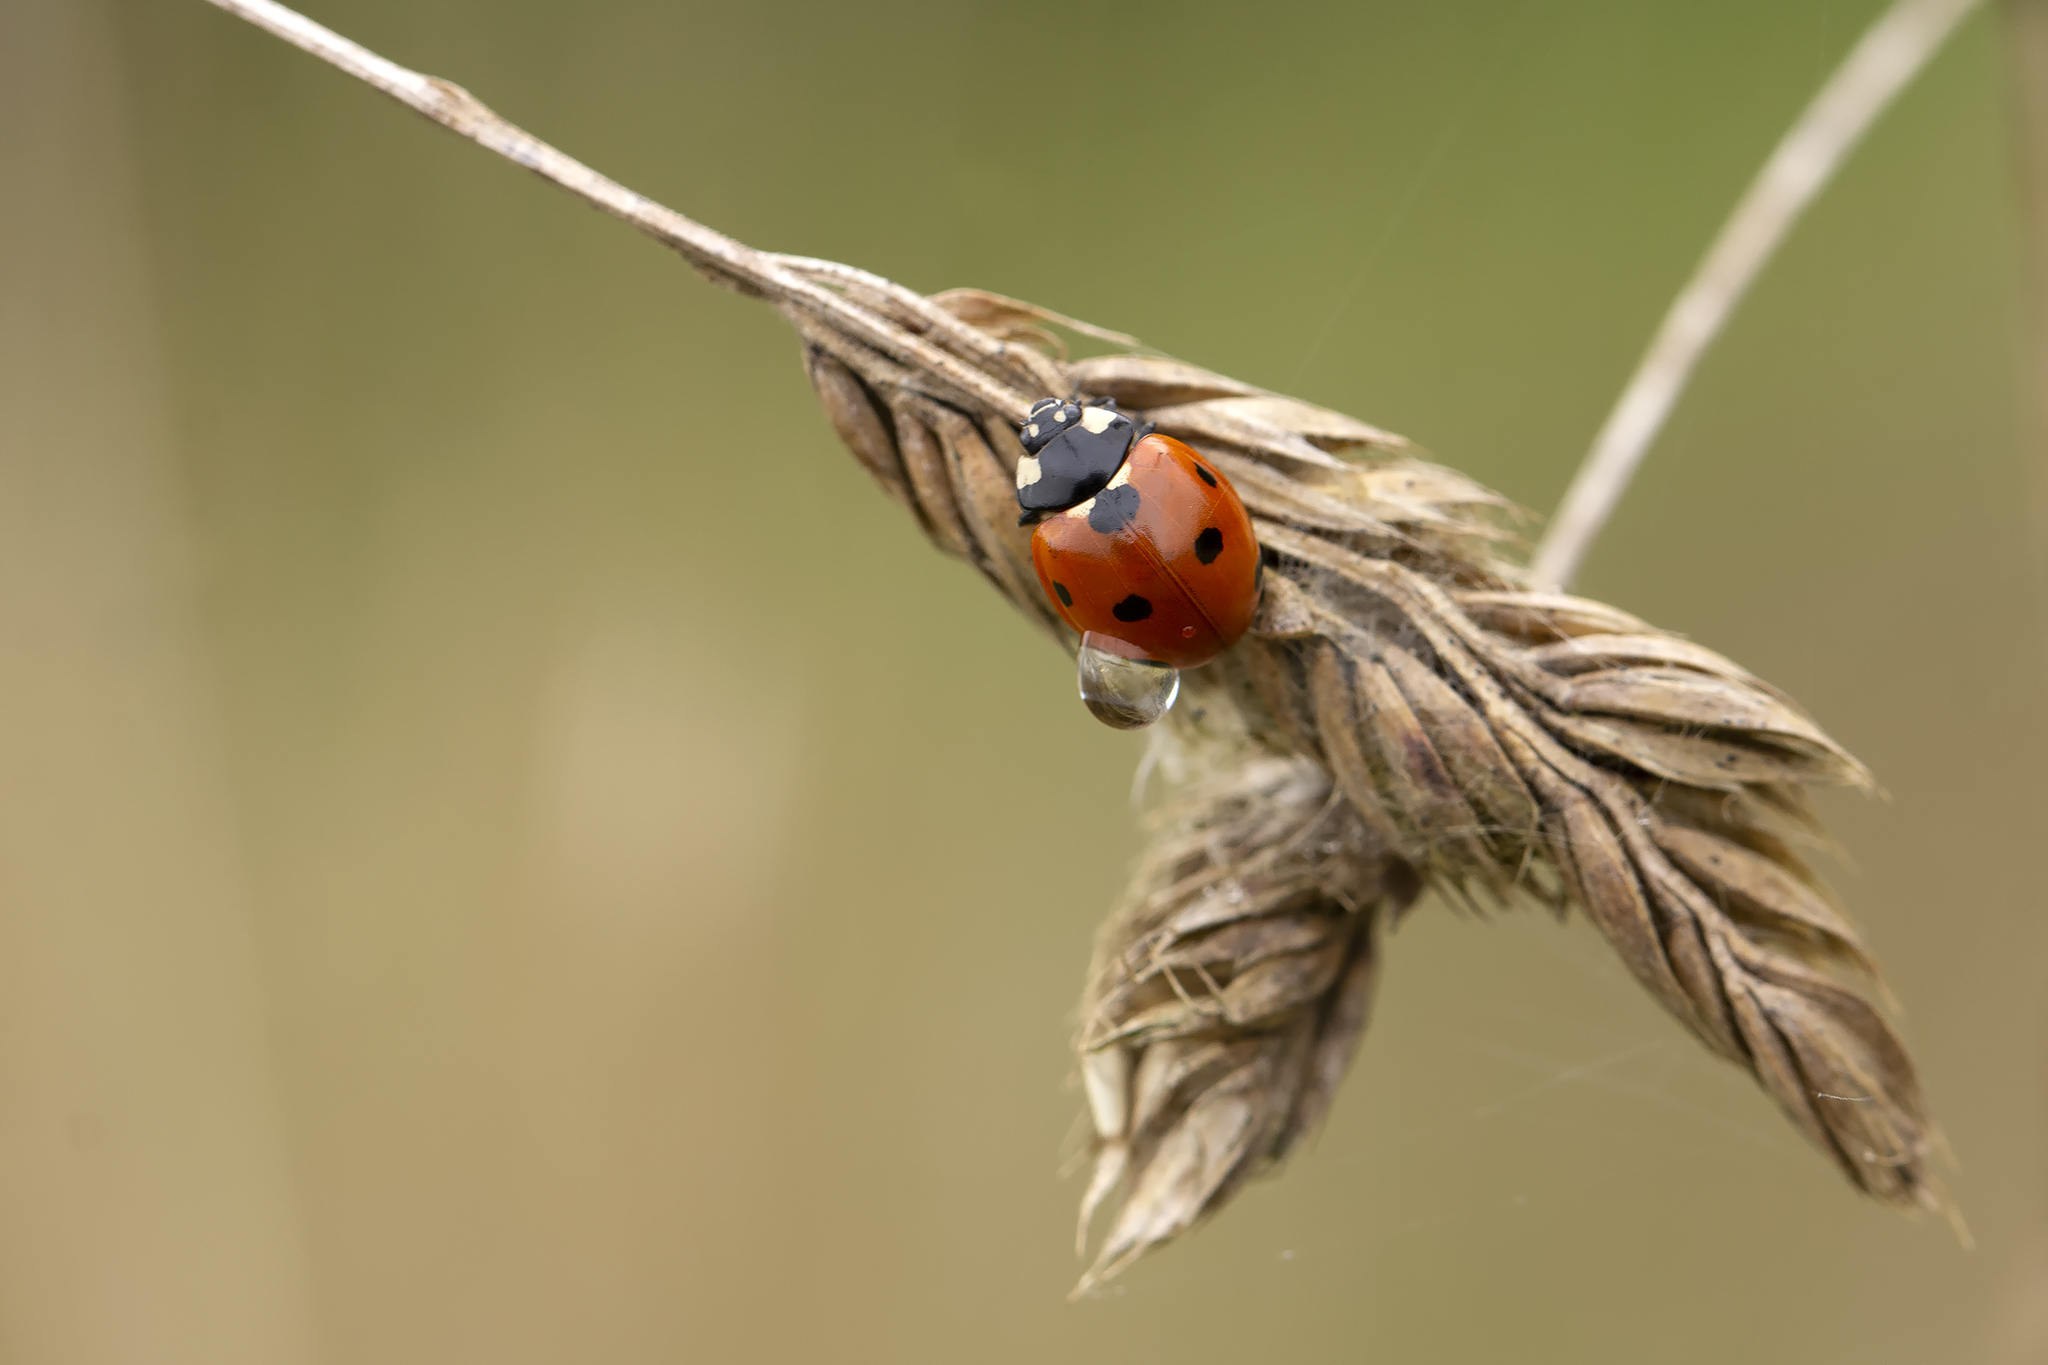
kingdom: Animalia
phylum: Arthropoda
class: Insecta
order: Coleoptera
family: Coccinellidae
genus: Coccinella
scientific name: Coccinella septempunctata
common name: Sevenspotted lady beetle
